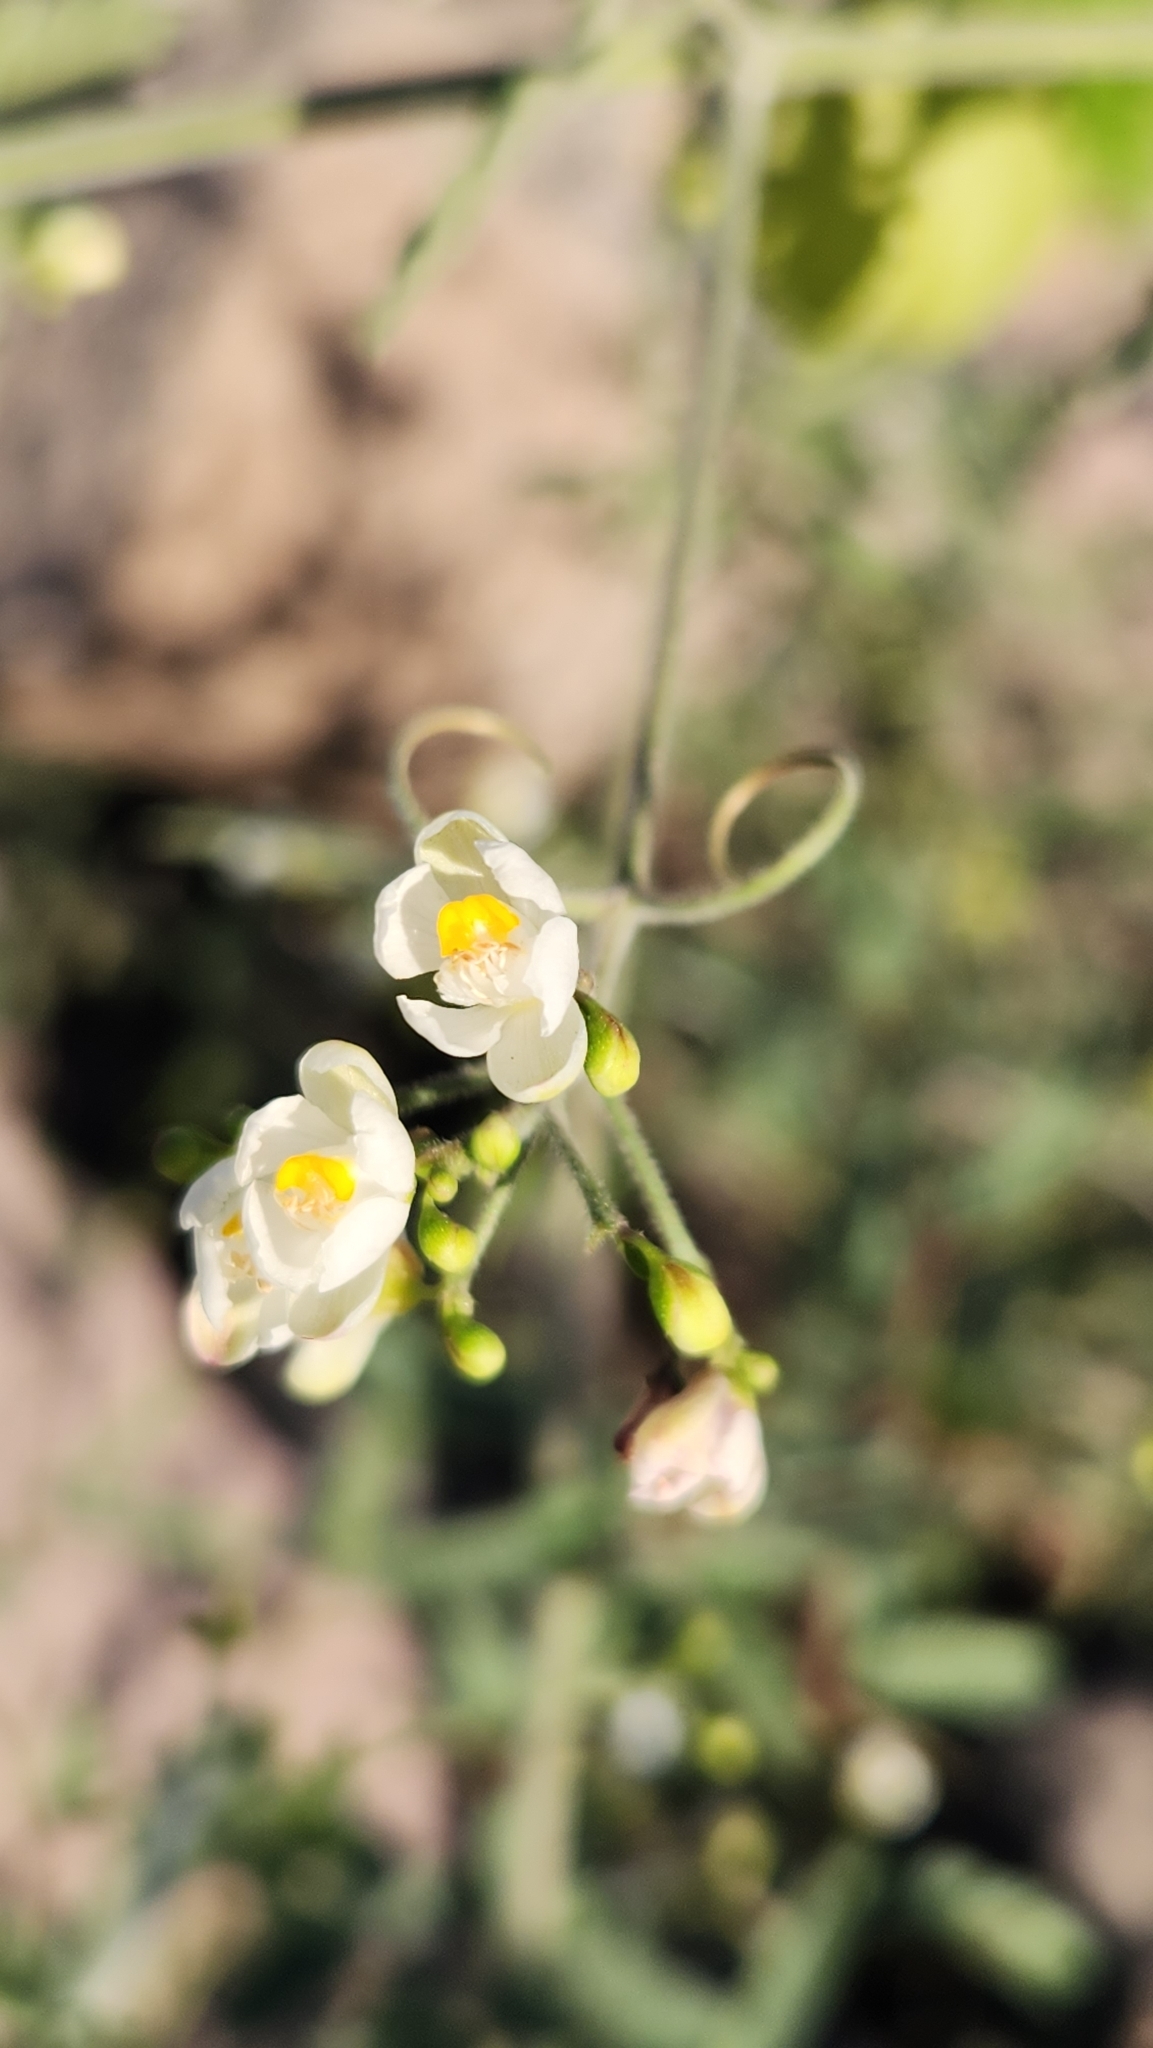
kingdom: Plantae
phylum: Tracheophyta
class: Magnoliopsida
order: Sapindales
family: Sapindaceae
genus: Cardiospermum
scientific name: Cardiospermum corindum
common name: Faux persil
